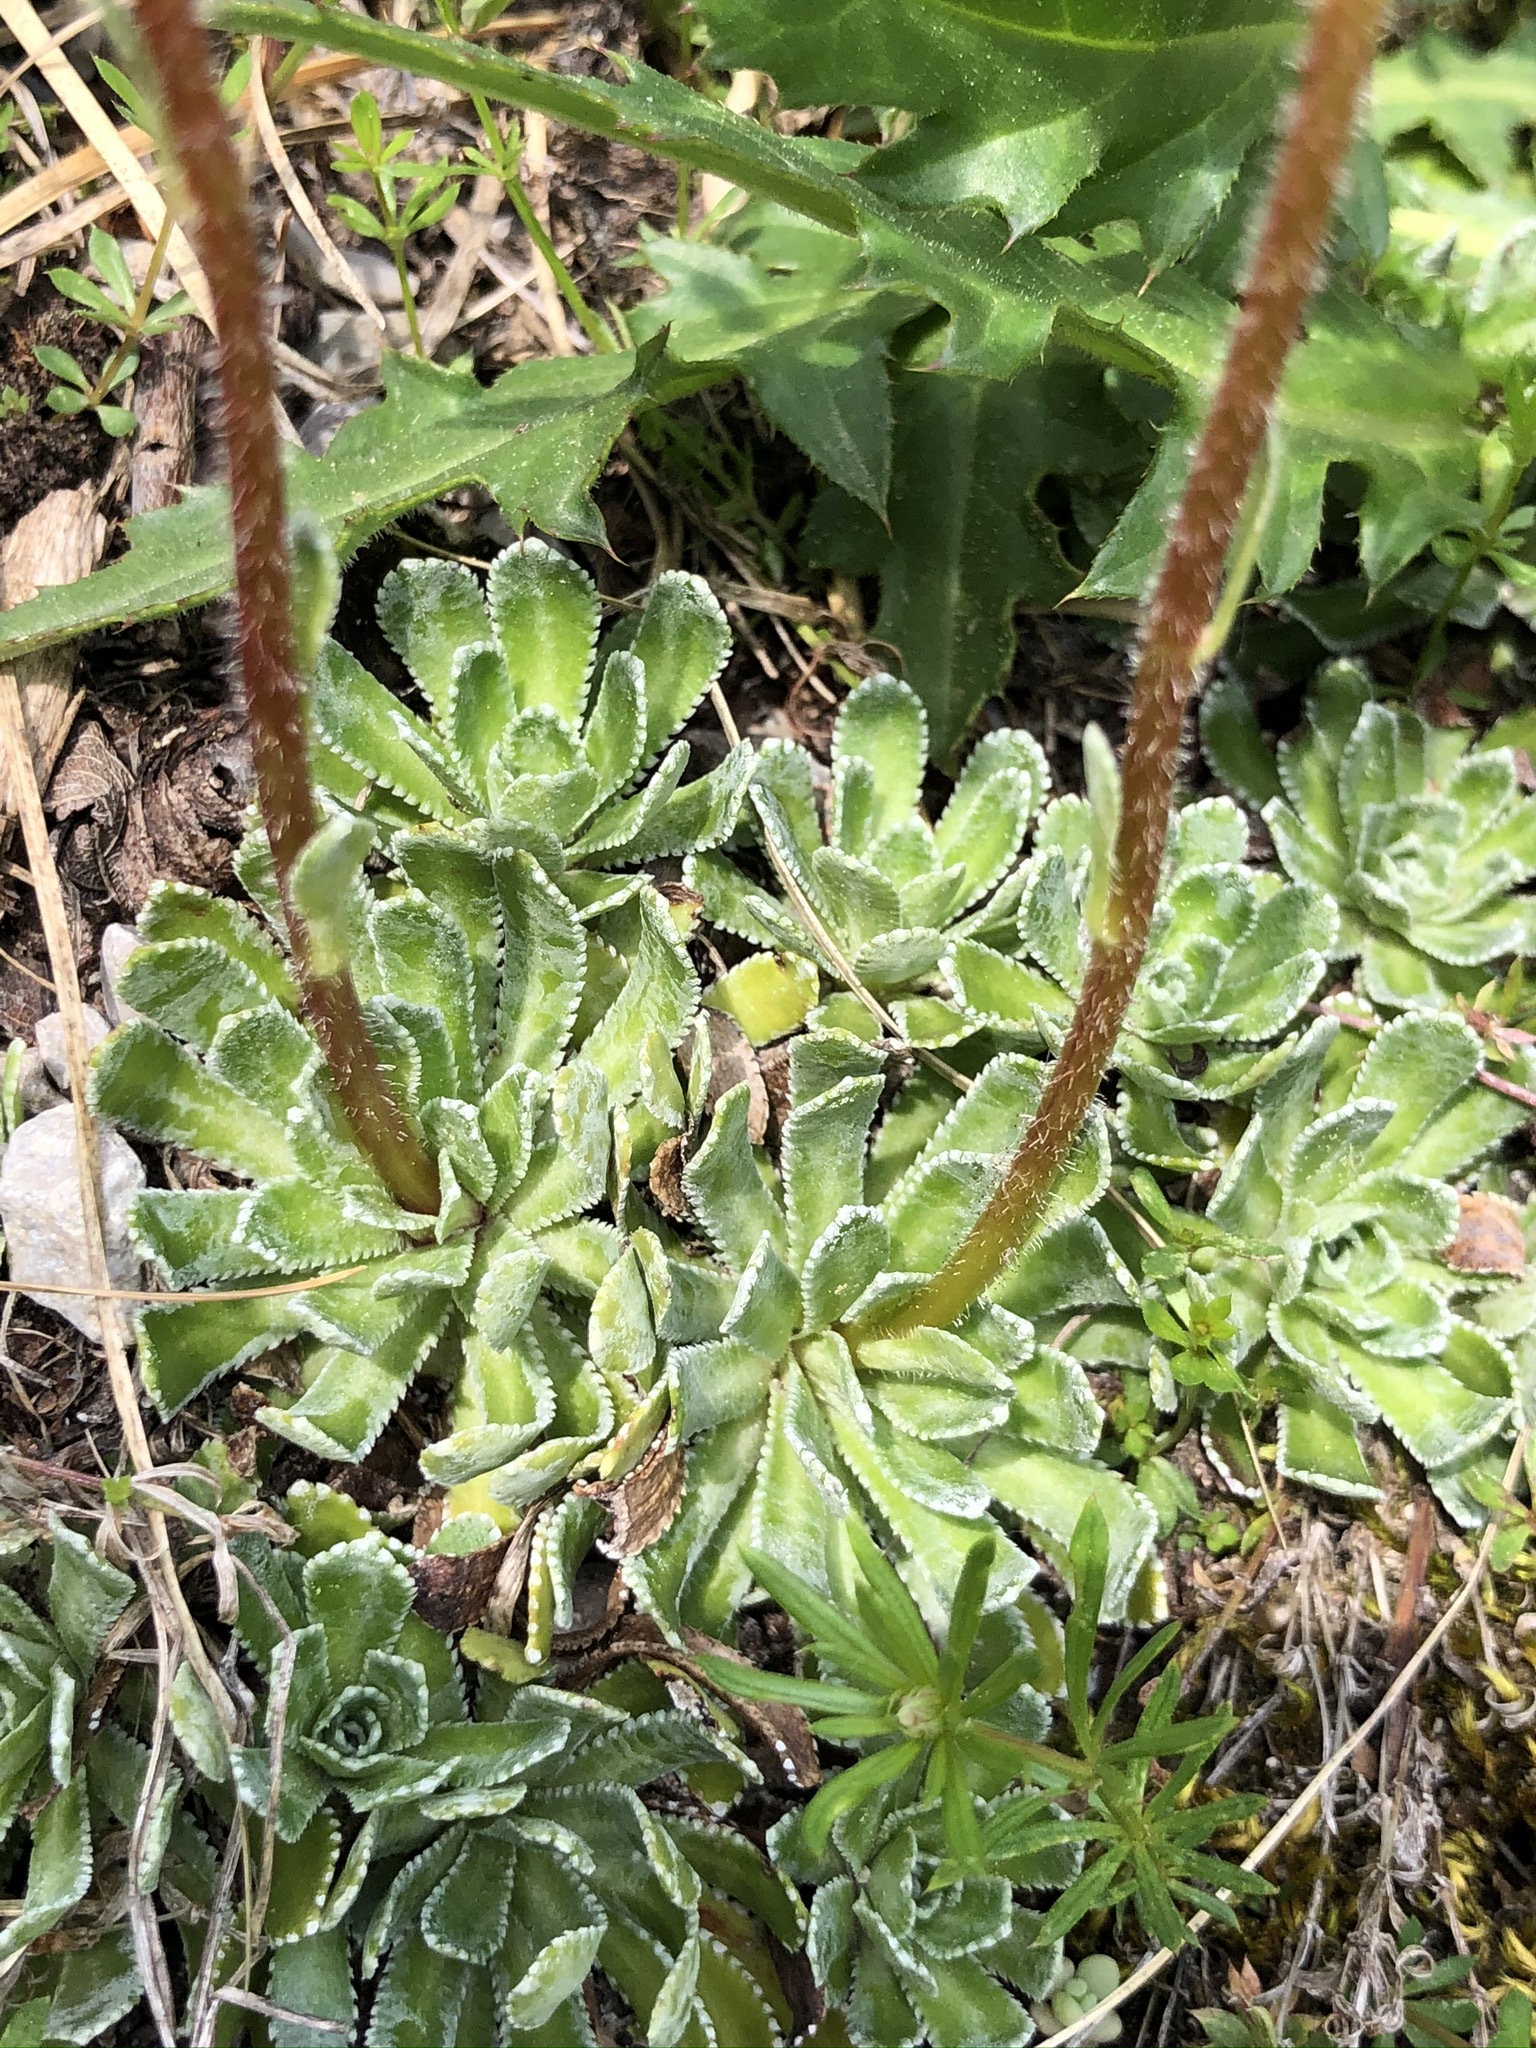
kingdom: Plantae
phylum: Tracheophyta
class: Magnoliopsida
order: Saxifragales
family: Saxifragaceae
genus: Saxifraga
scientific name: Saxifraga paniculata
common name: Livelong saxifrage
